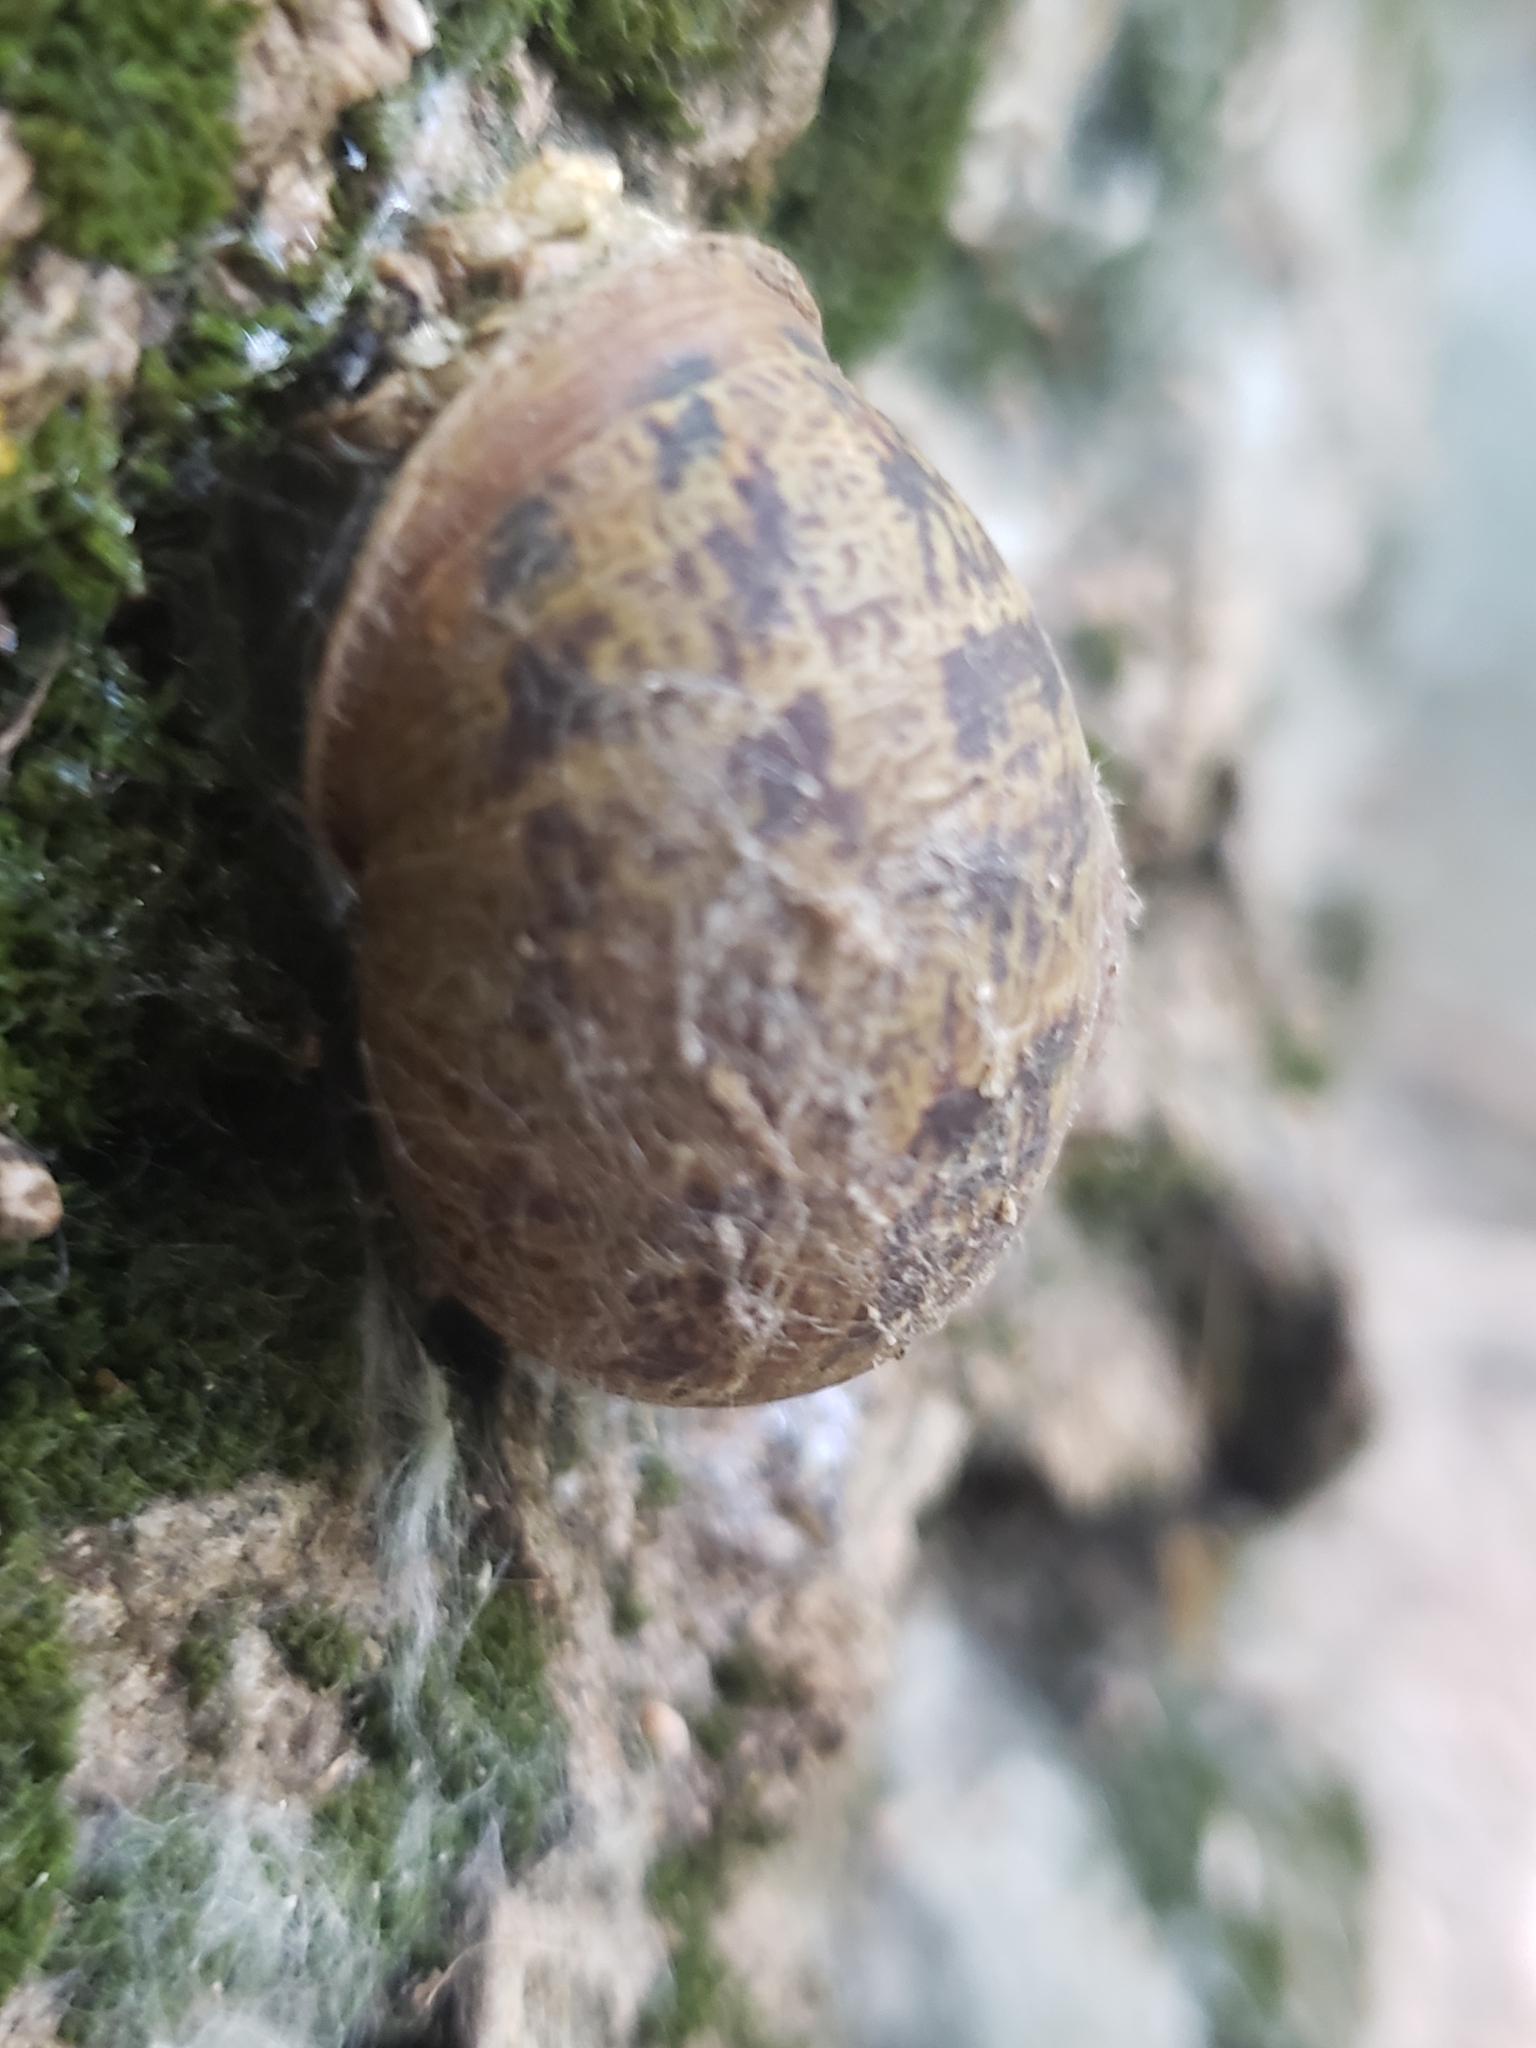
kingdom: Animalia
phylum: Mollusca
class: Gastropoda
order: Stylommatophora
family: Helicidae
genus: Cornu
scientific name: Cornu aspersum
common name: Brown garden snail
